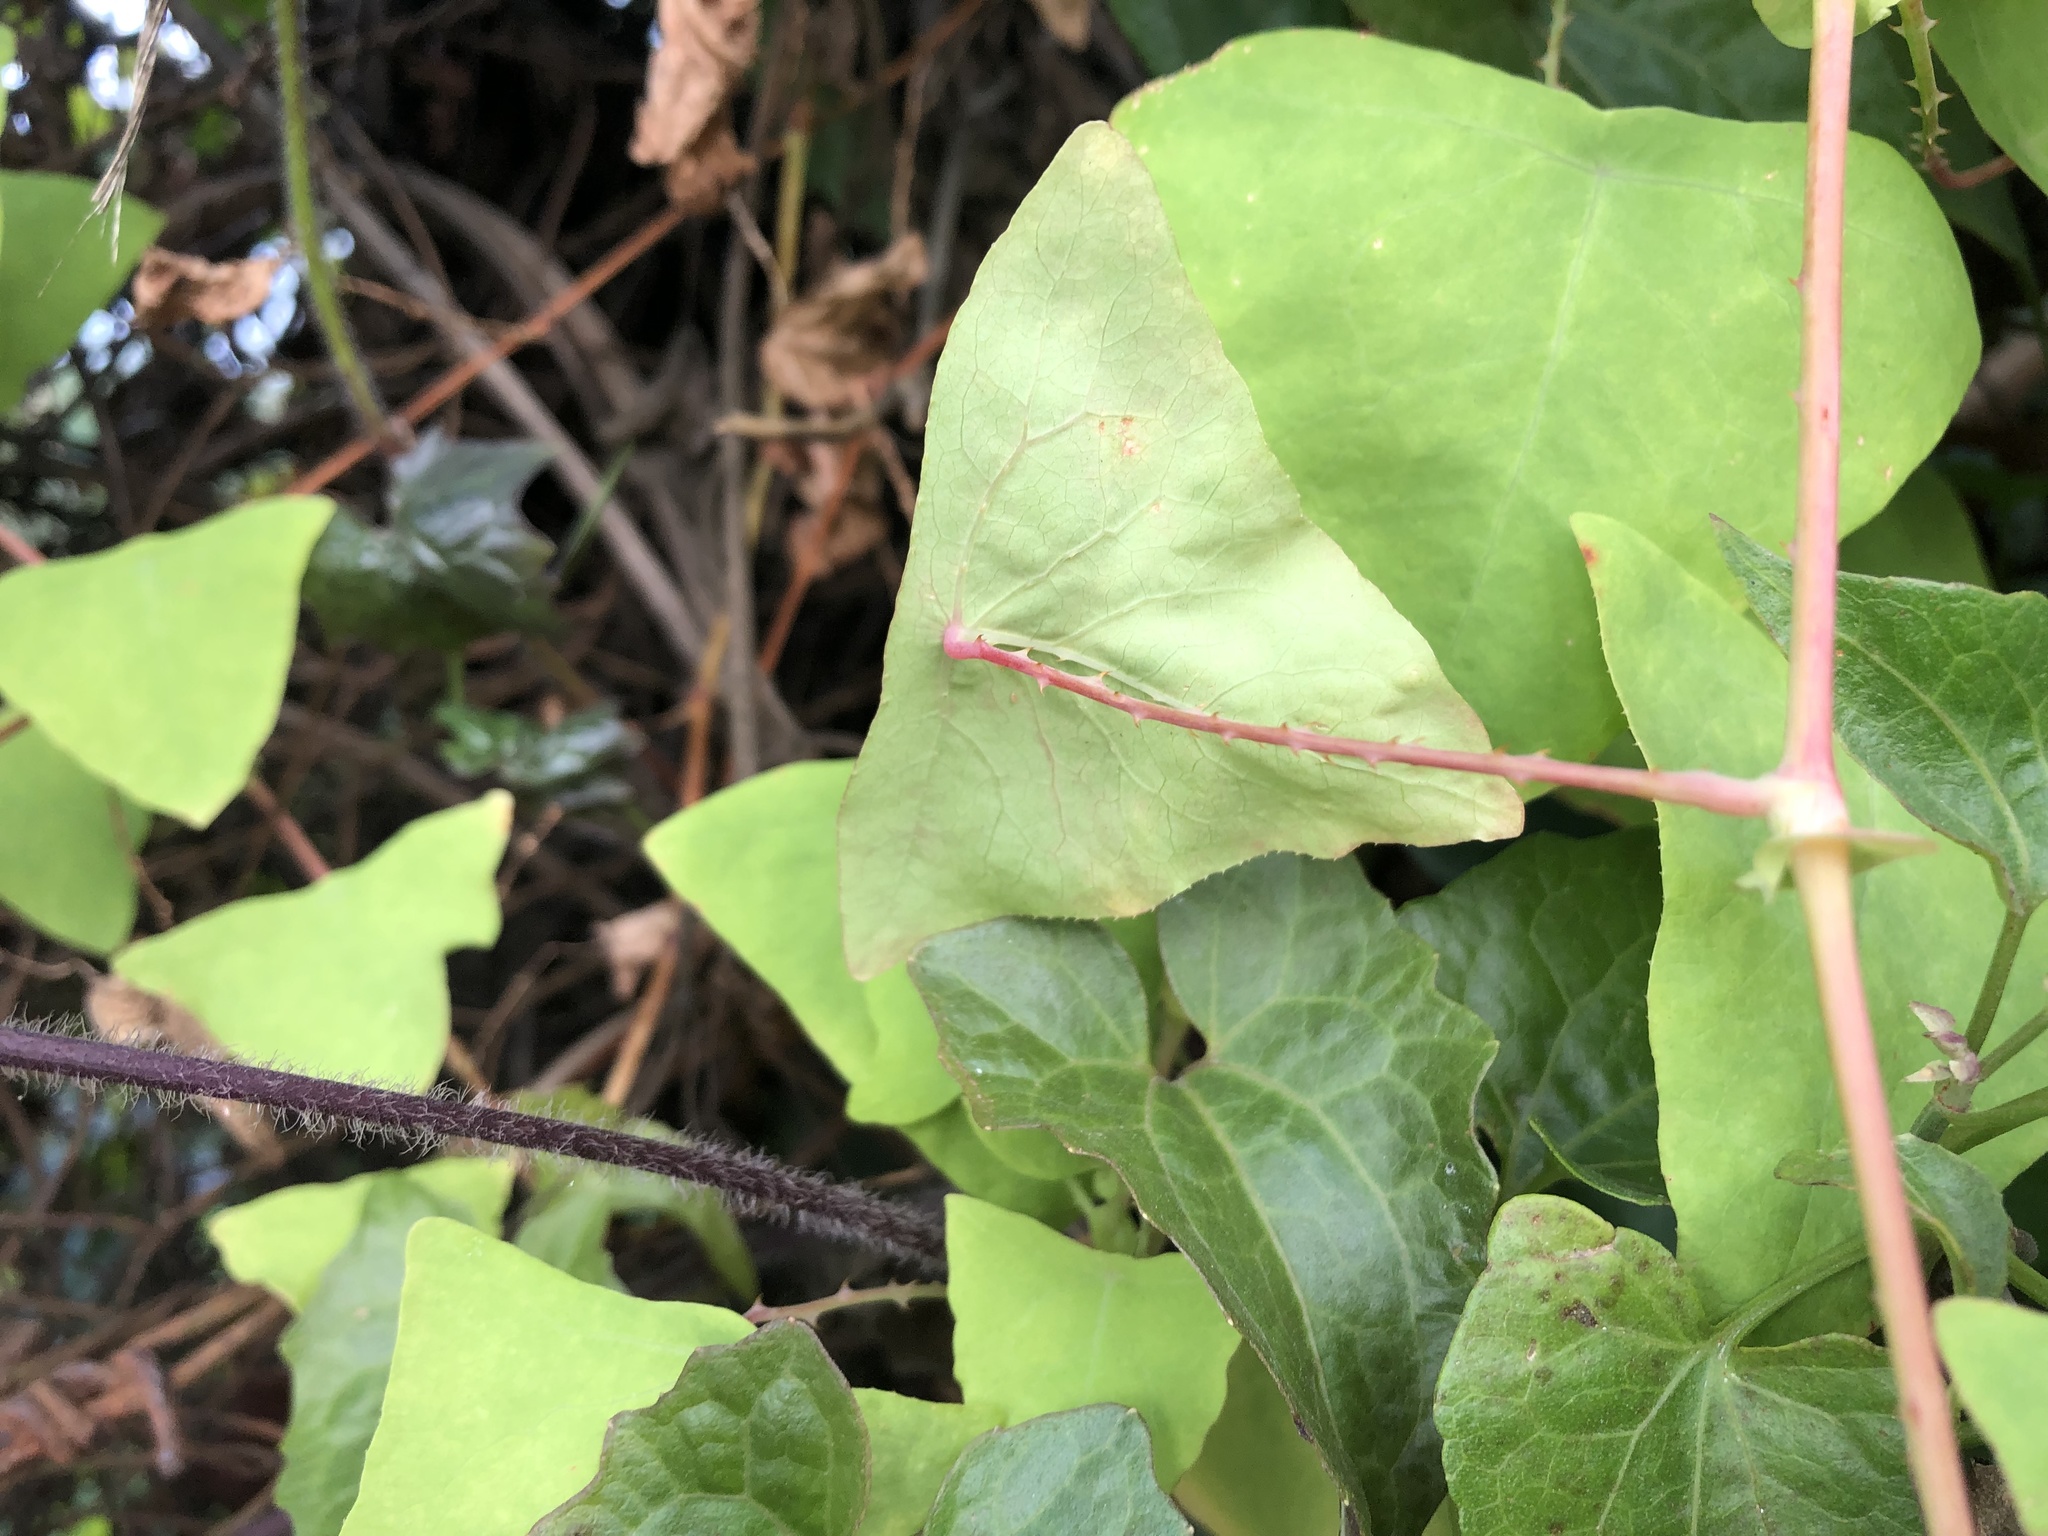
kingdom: Plantae
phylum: Tracheophyta
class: Magnoliopsida
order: Caryophyllales
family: Polygonaceae
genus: Persicaria
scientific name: Persicaria perfoliata
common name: Asiatic tearthumb
